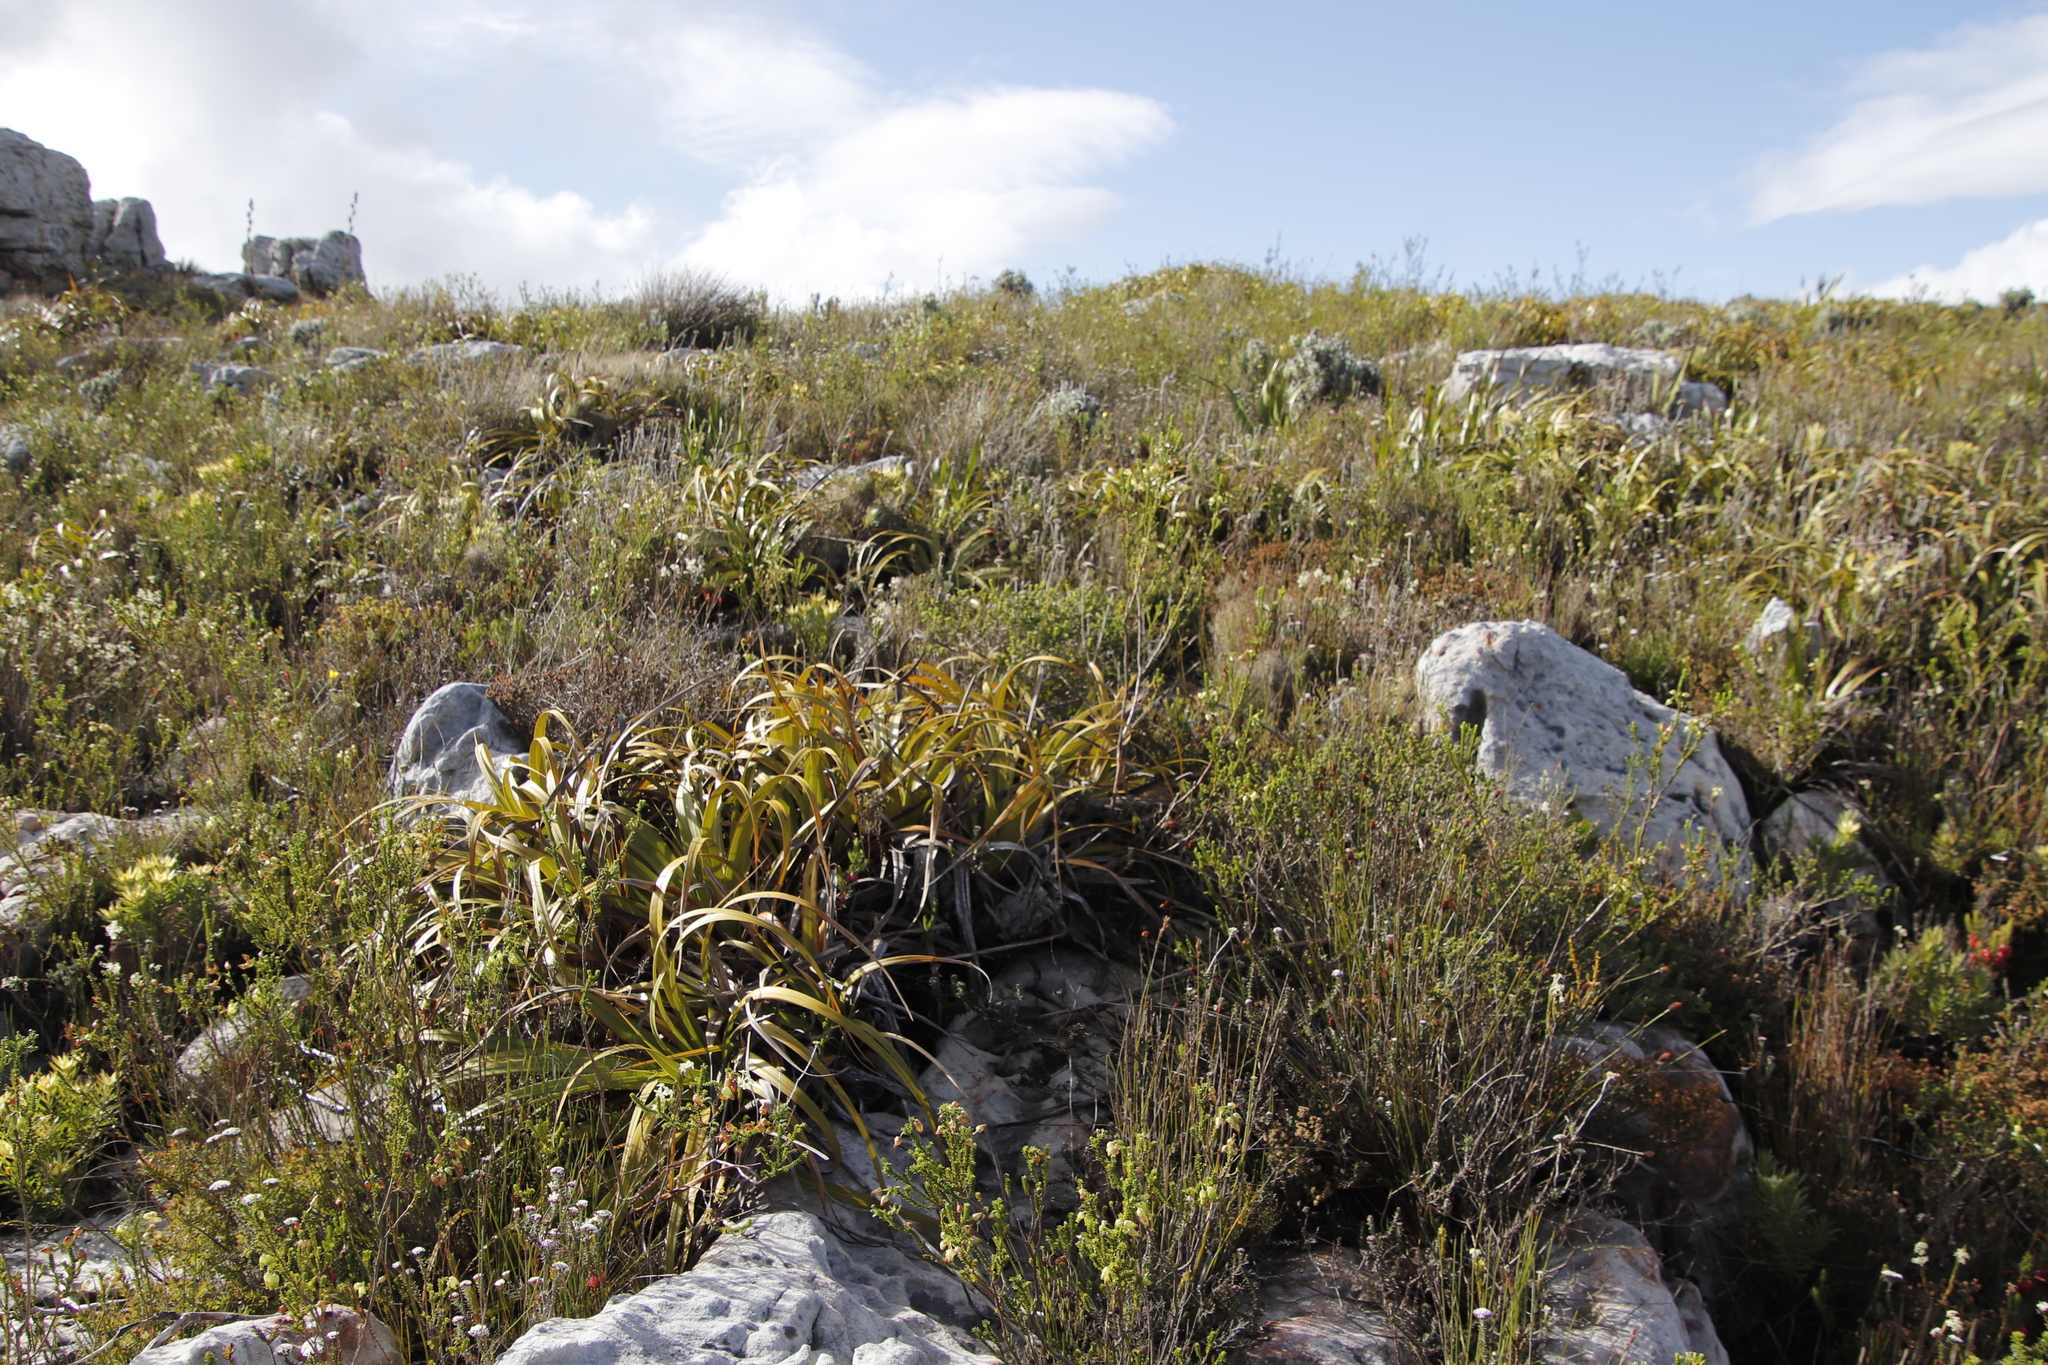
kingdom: Plantae
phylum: Tracheophyta
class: Liliopsida
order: Poales
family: Cyperaceae
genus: Tetraria
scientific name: Tetraria thermalis
